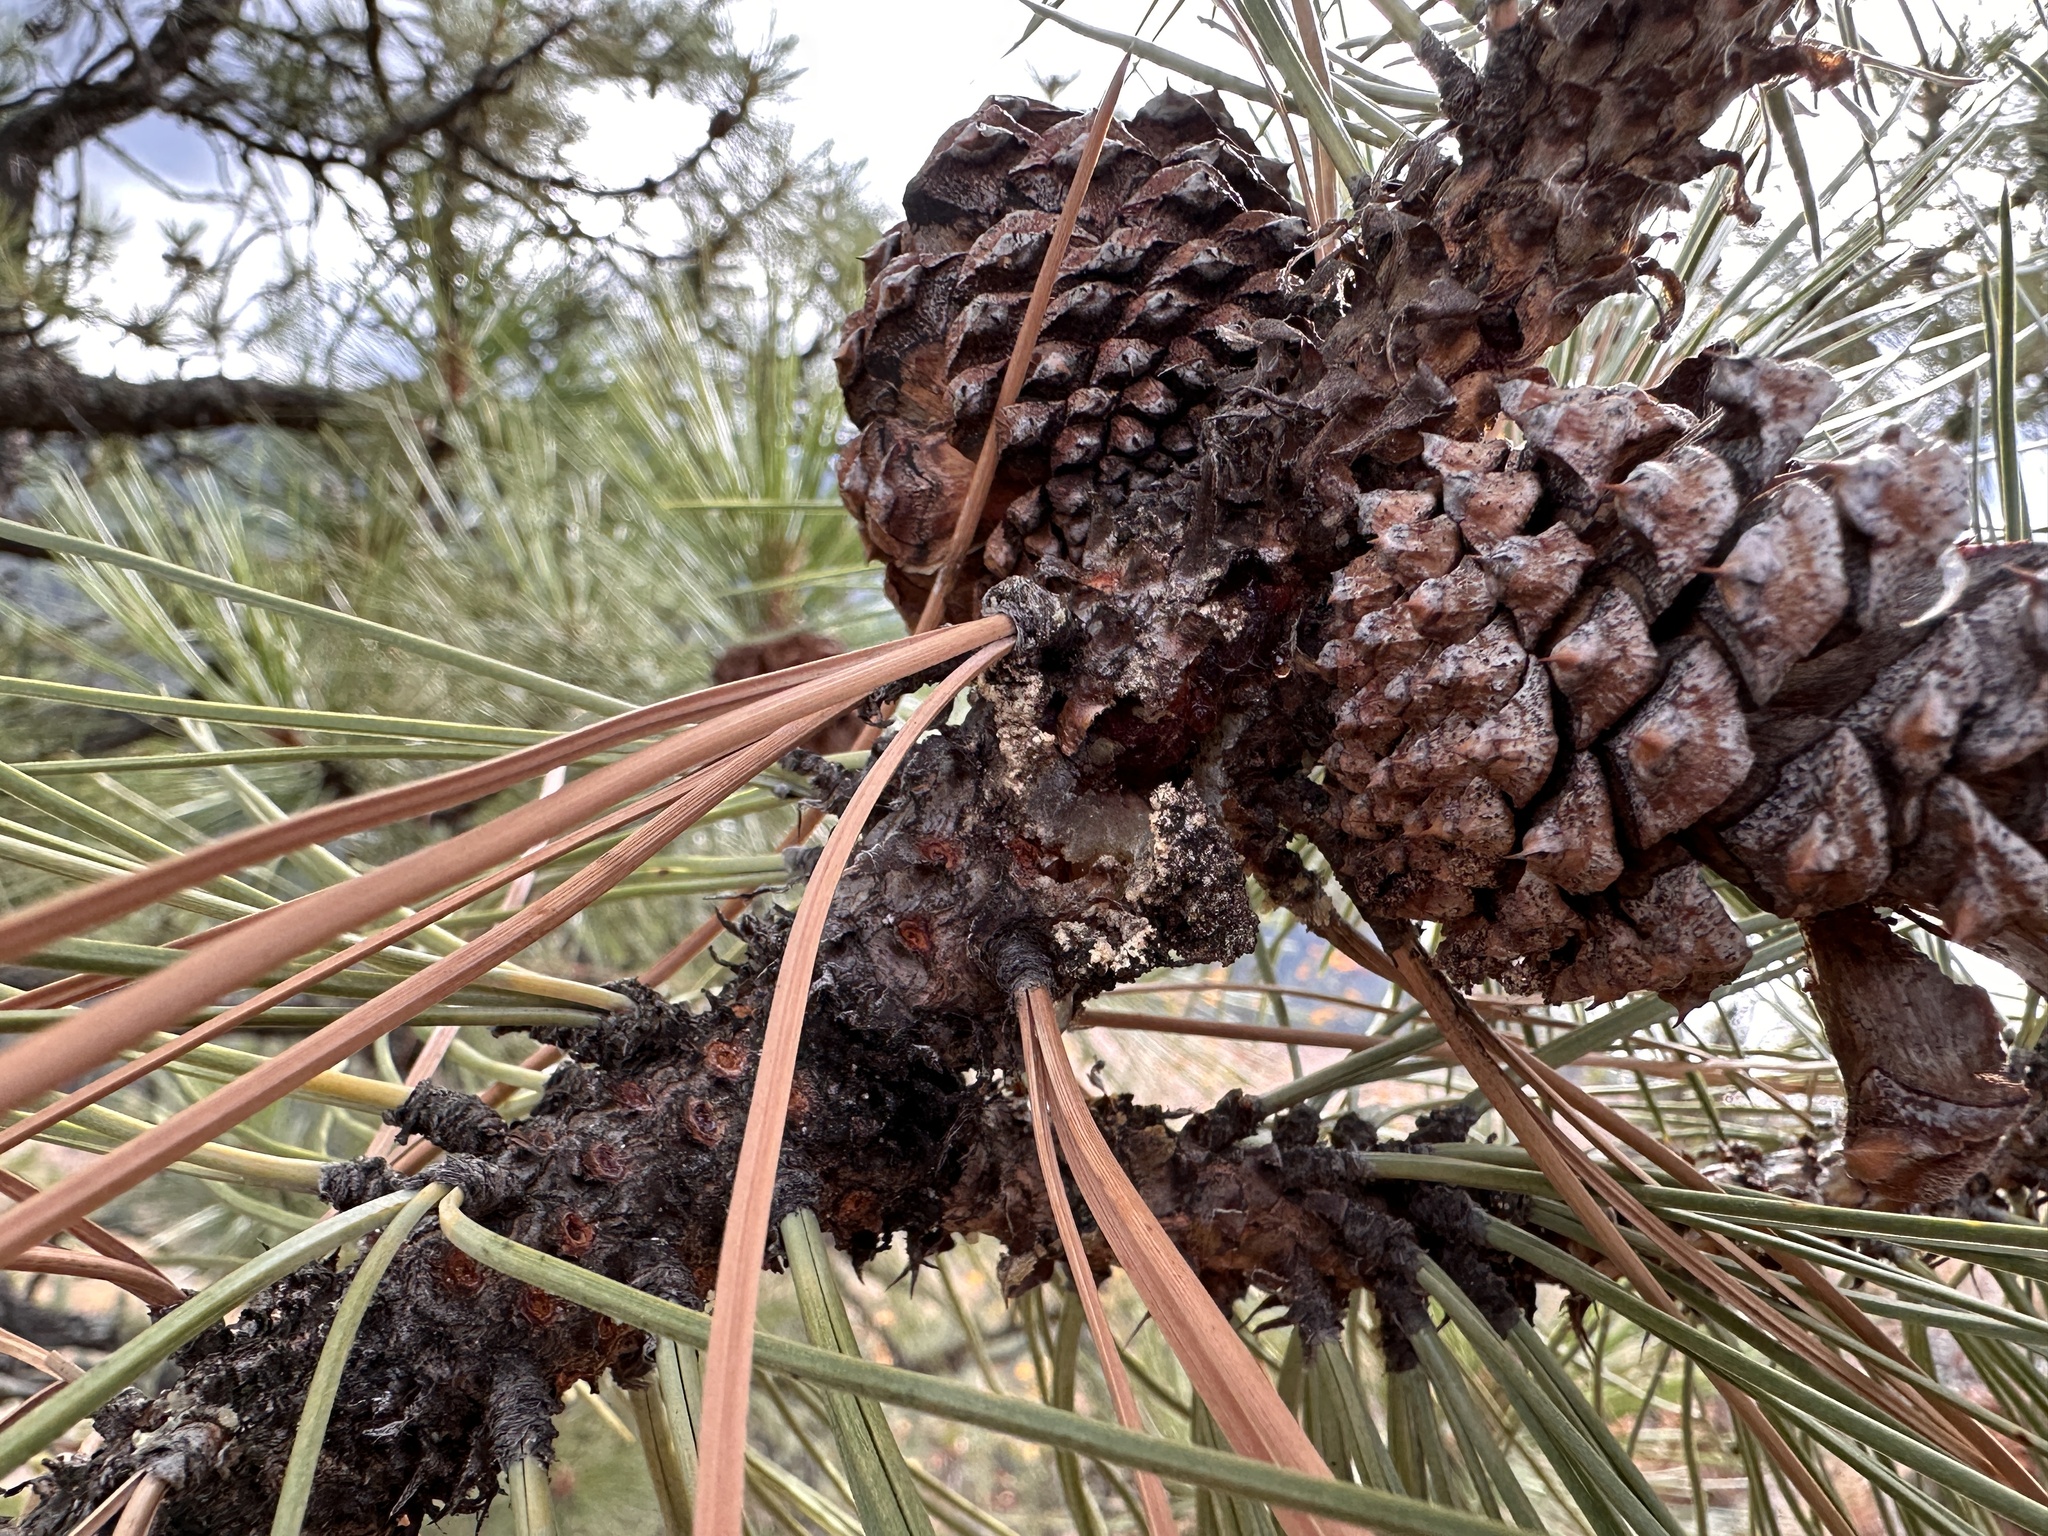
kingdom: Plantae
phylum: Tracheophyta
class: Pinopsida
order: Pinales
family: Pinaceae
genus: Pinus
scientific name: Pinus ponderosa
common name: Western yellow-pine
